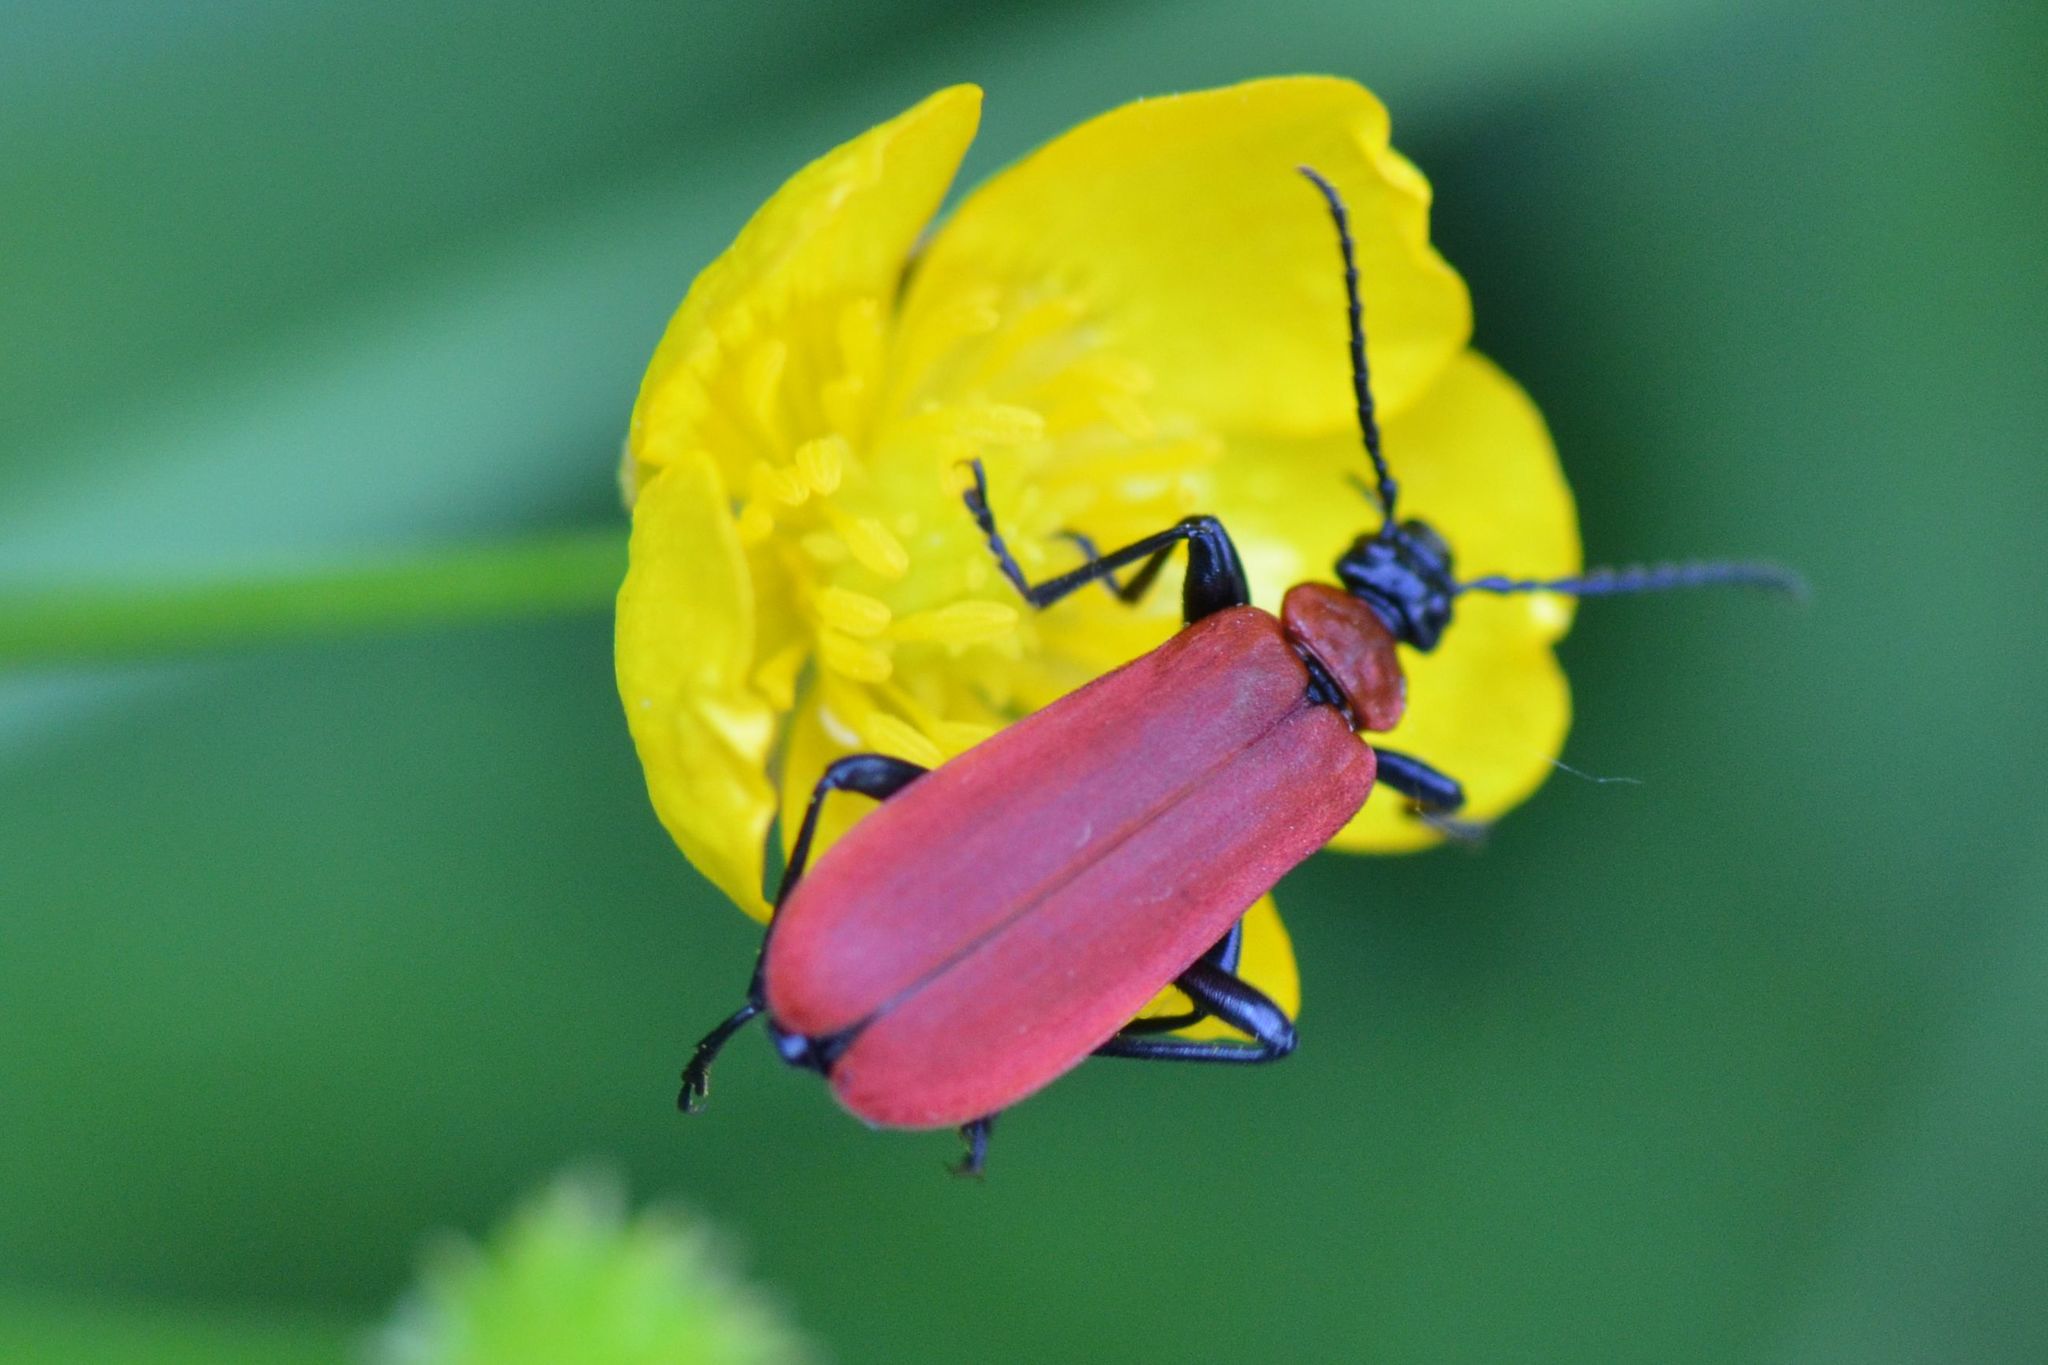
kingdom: Animalia
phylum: Arthropoda
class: Insecta
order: Coleoptera
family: Pyrochroidae
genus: Pyrochroa
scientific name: Pyrochroa coccinea
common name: Black-headed cardinal beetle
